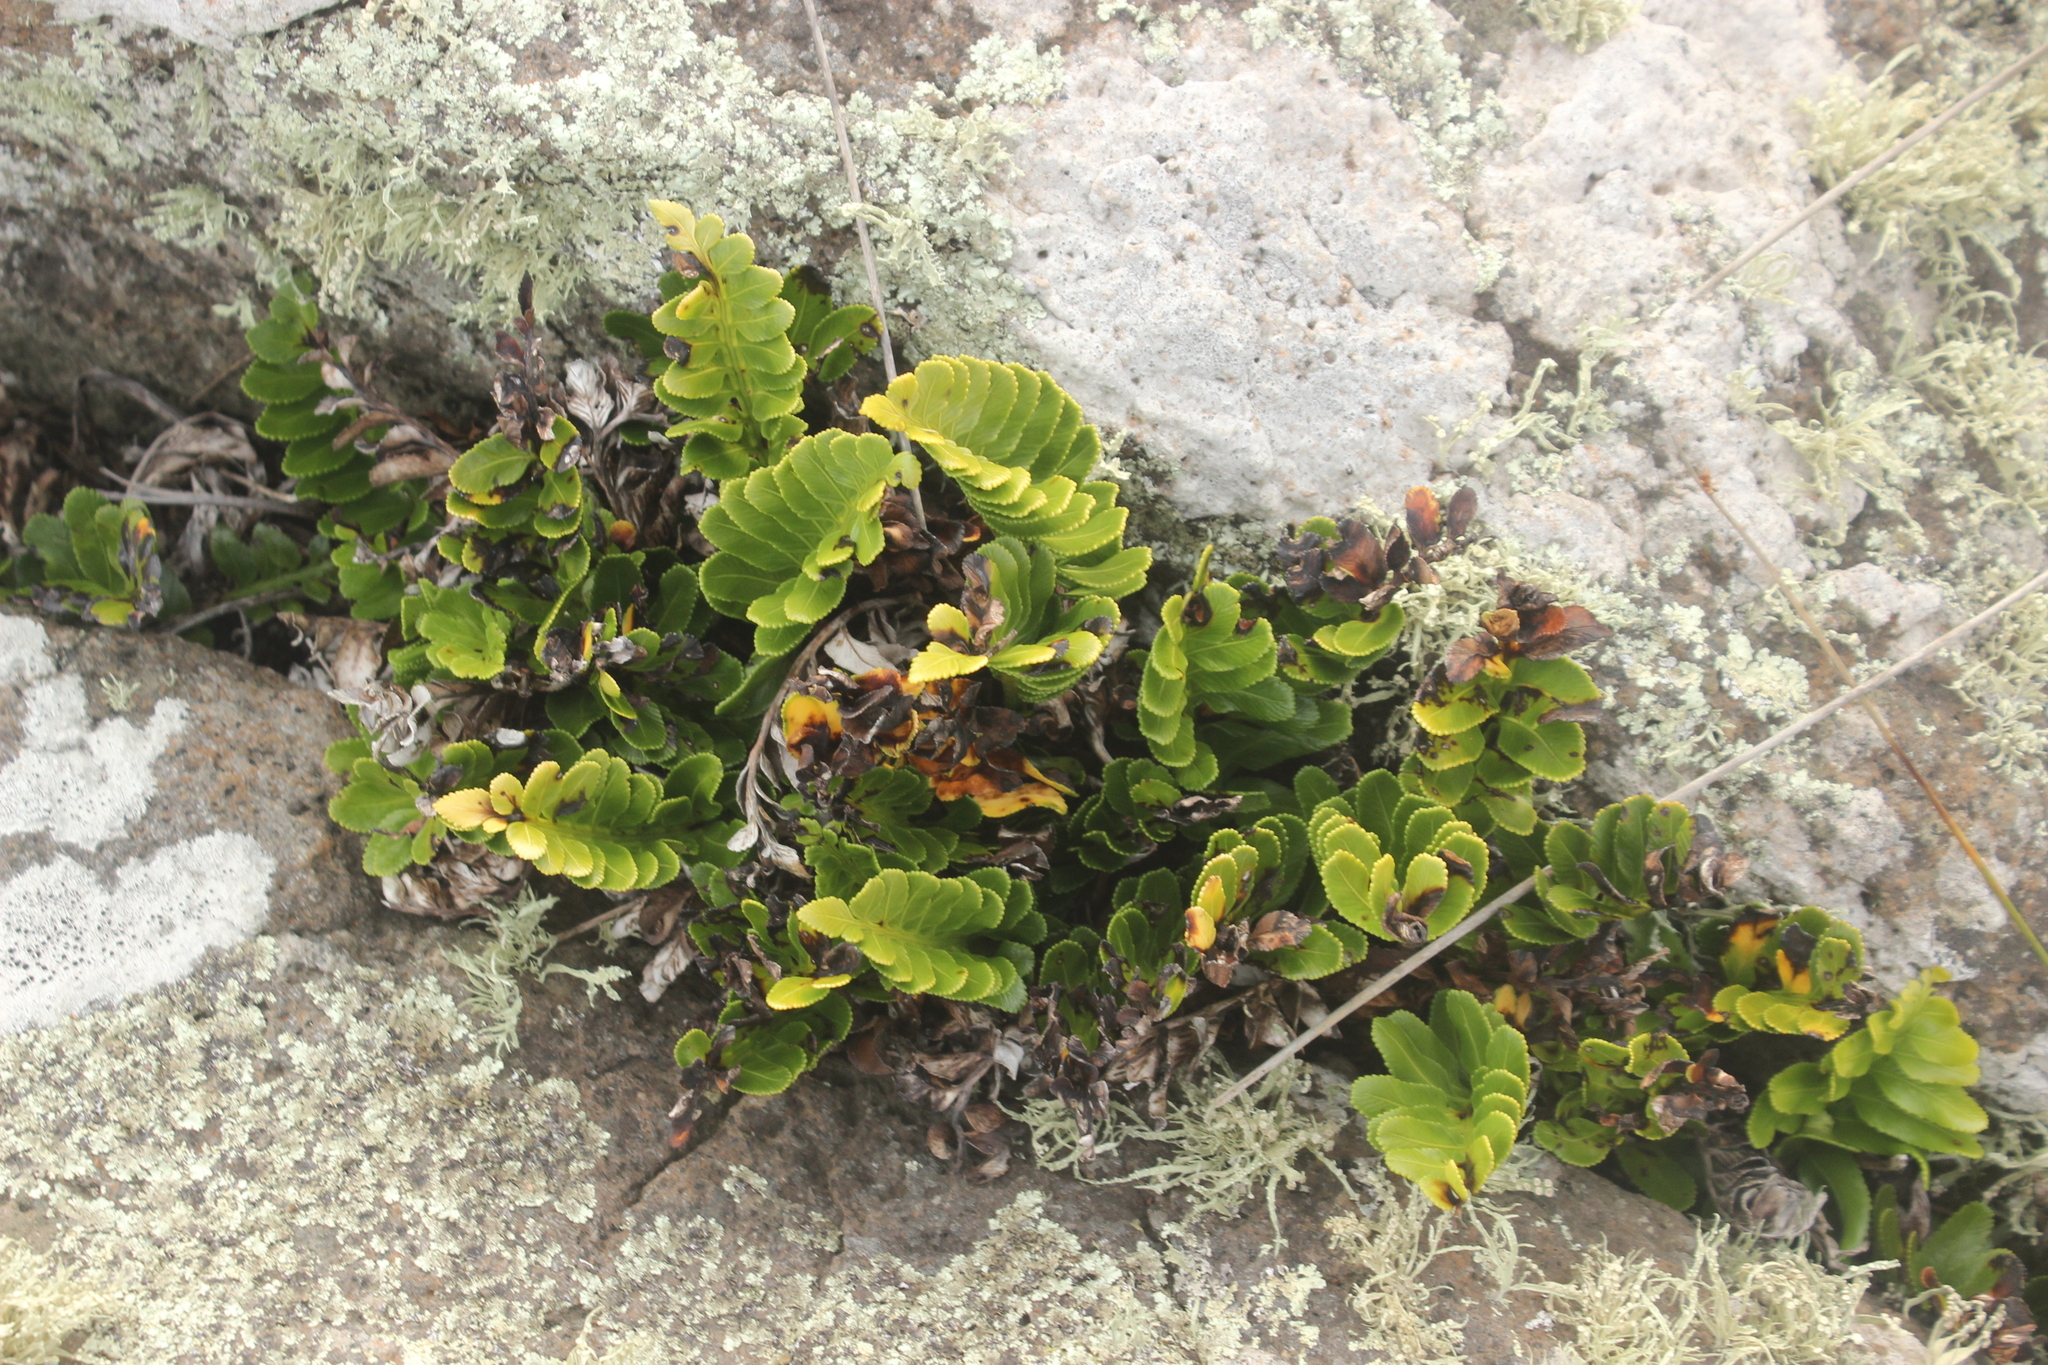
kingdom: Plantae
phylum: Tracheophyta
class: Polypodiopsida
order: Polypodiales
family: Aspleniaceae
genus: Asplenium
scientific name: Asplenium obtusatum
